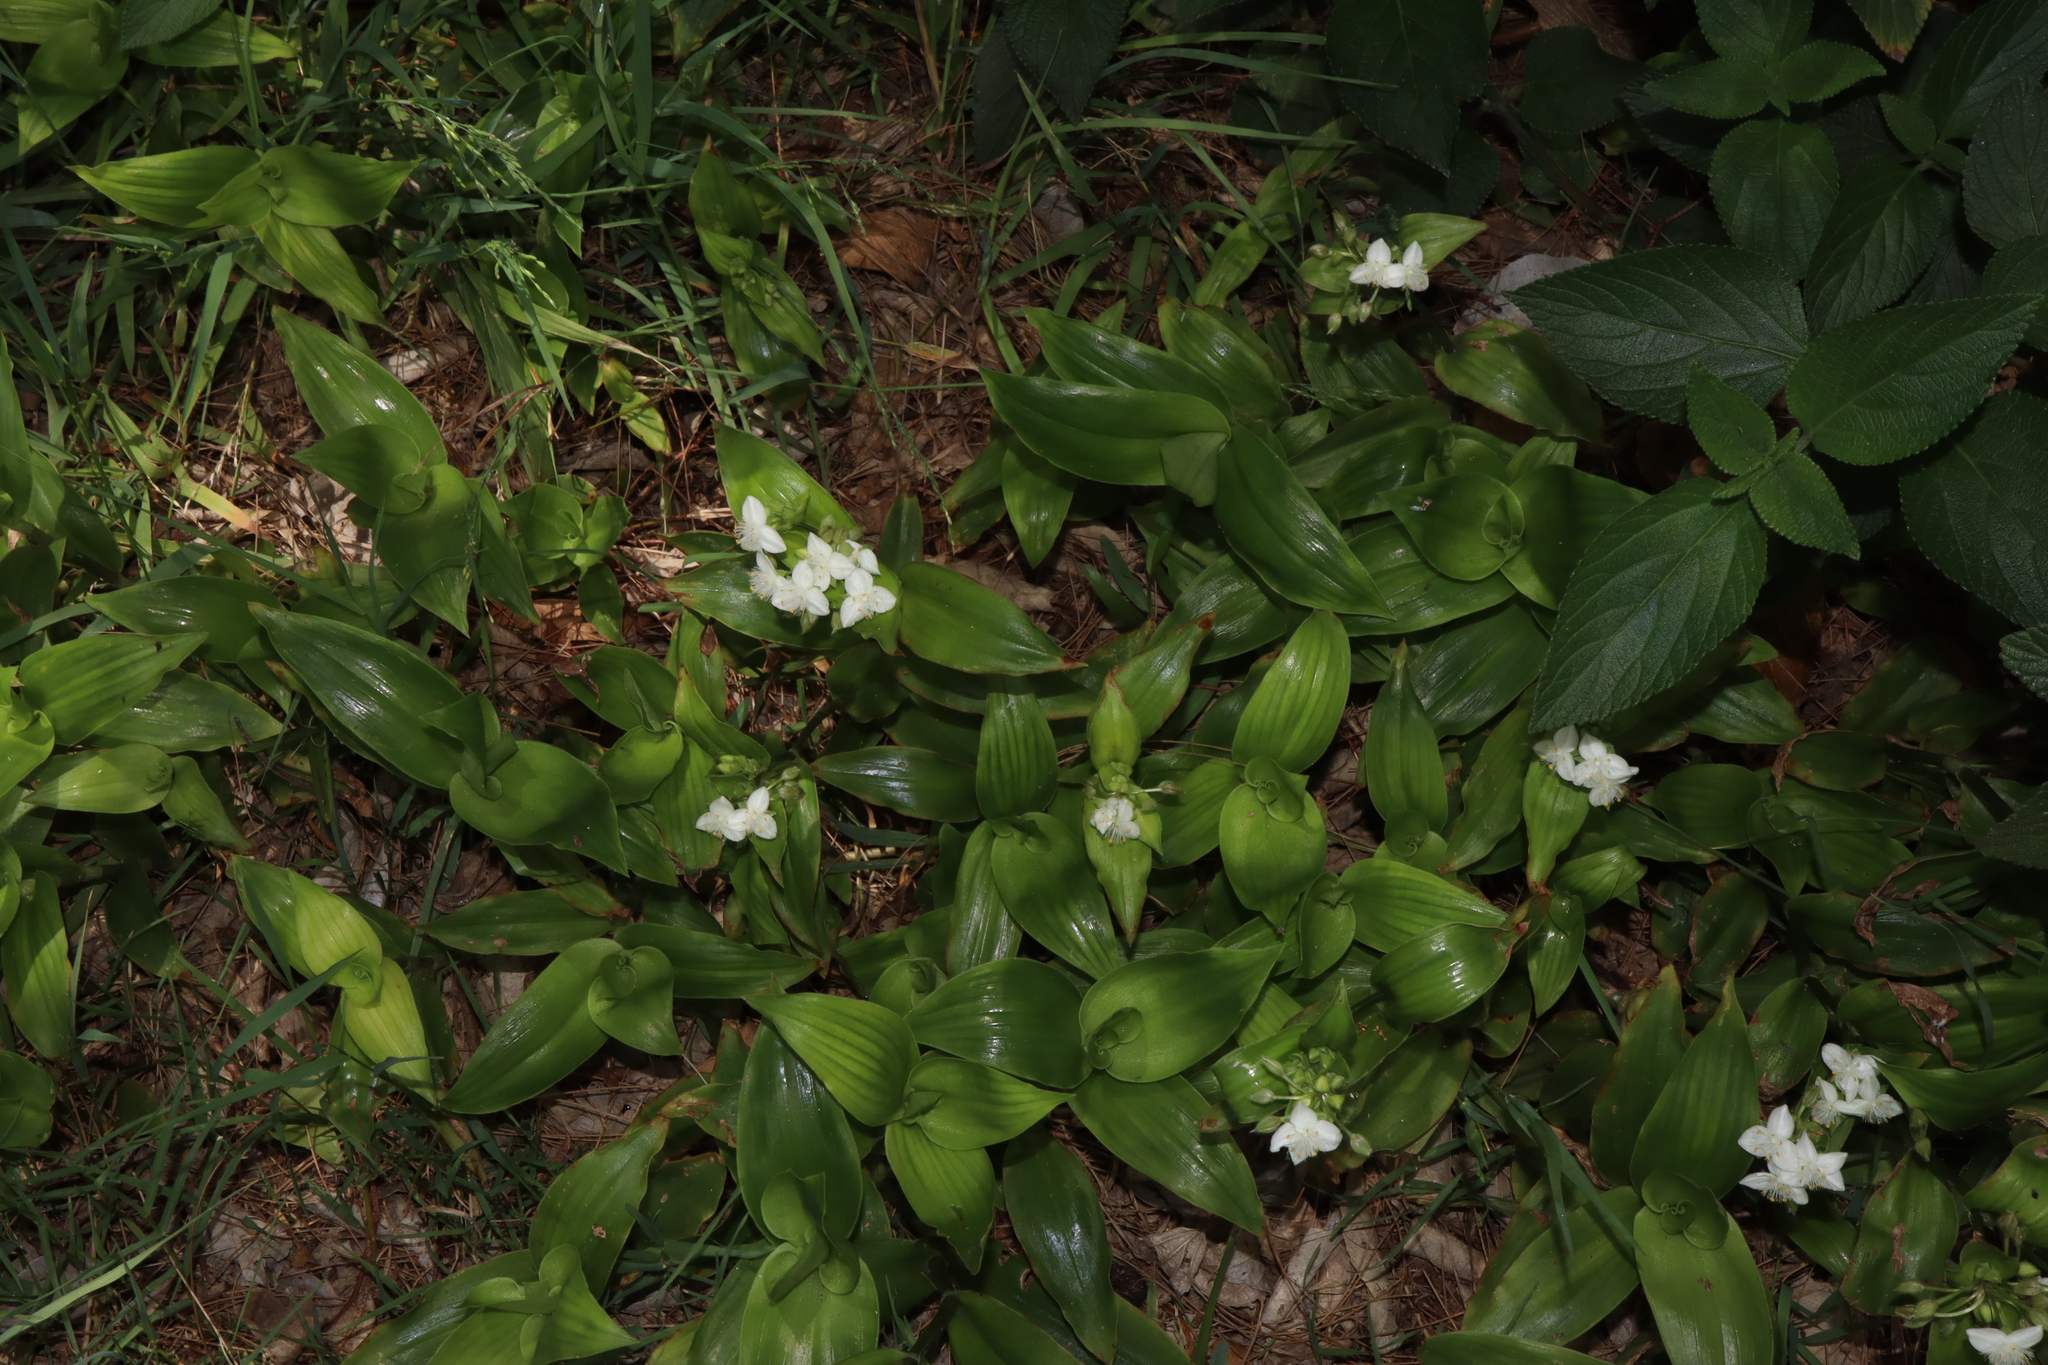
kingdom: Plantae
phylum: Tracheophyta
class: Liliopsida
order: Commelinales
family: Commelinaceae
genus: Tradescantia
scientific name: Tradescantia crassula
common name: Succulent spiderwort
